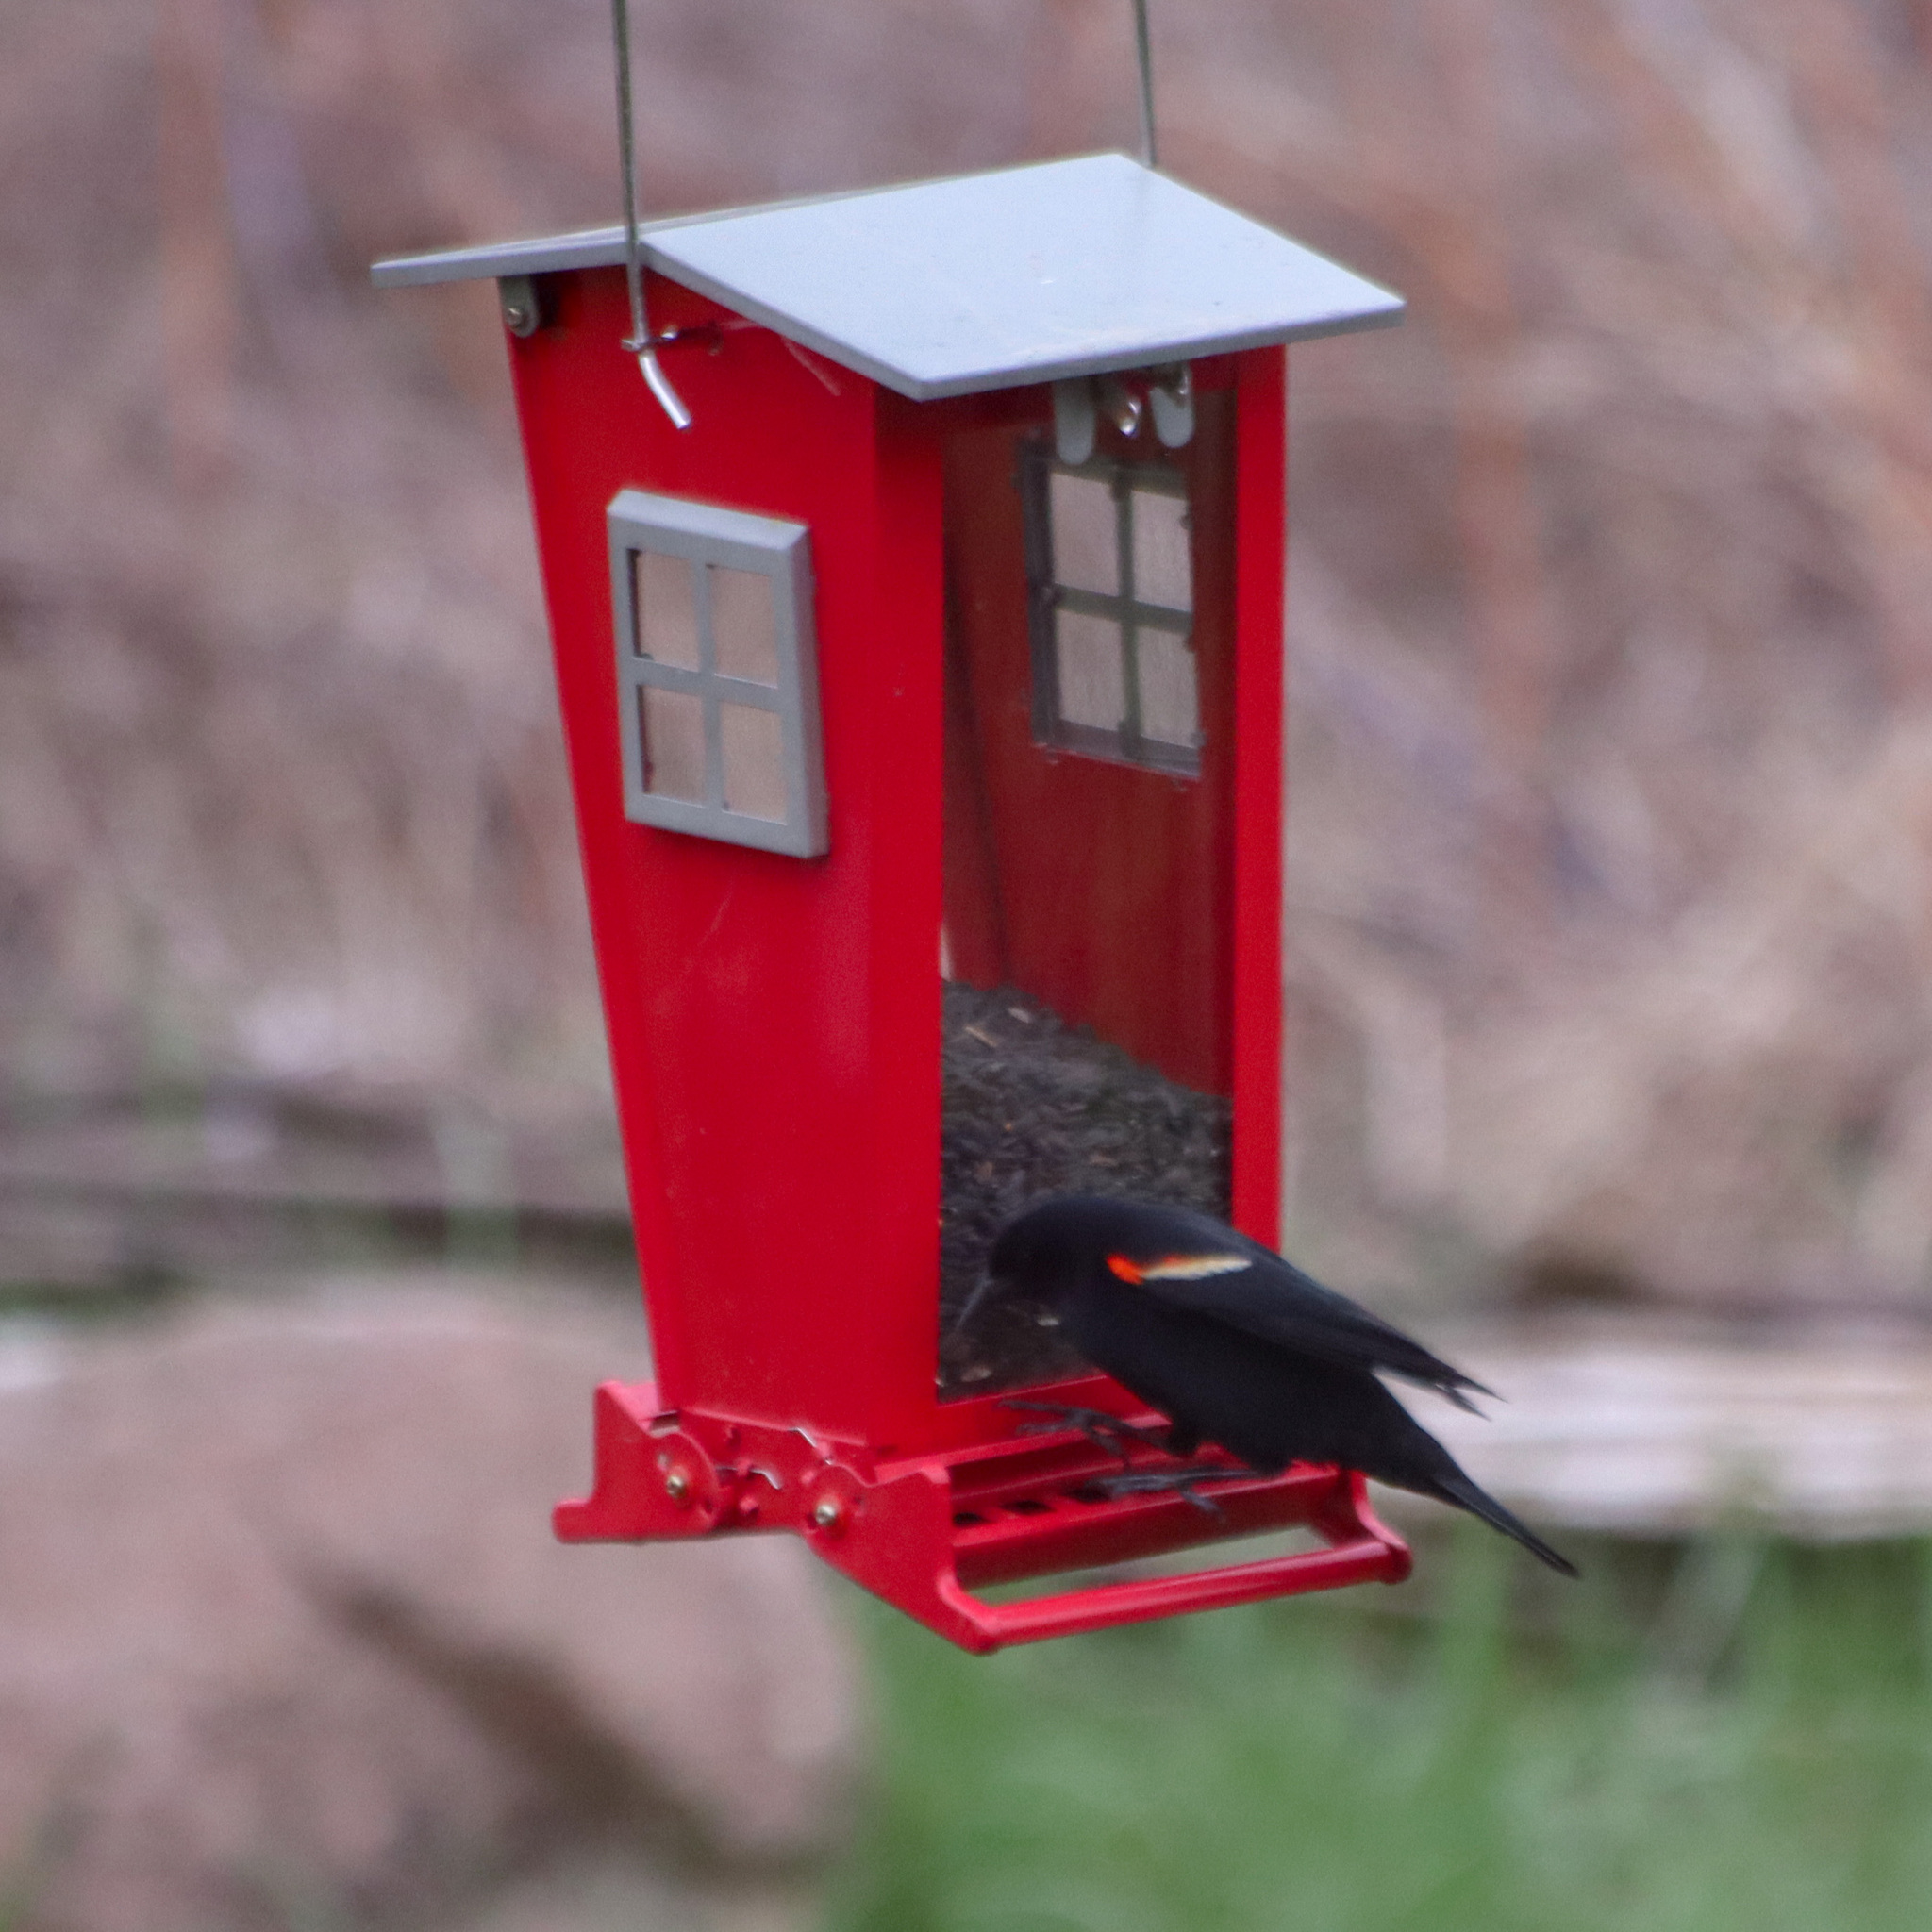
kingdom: Animalia
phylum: Chordata
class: Aves
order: Passeriformes
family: Icteridae
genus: Agelaius
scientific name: Agelaius phoeniceus
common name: Red-winged blackbird
